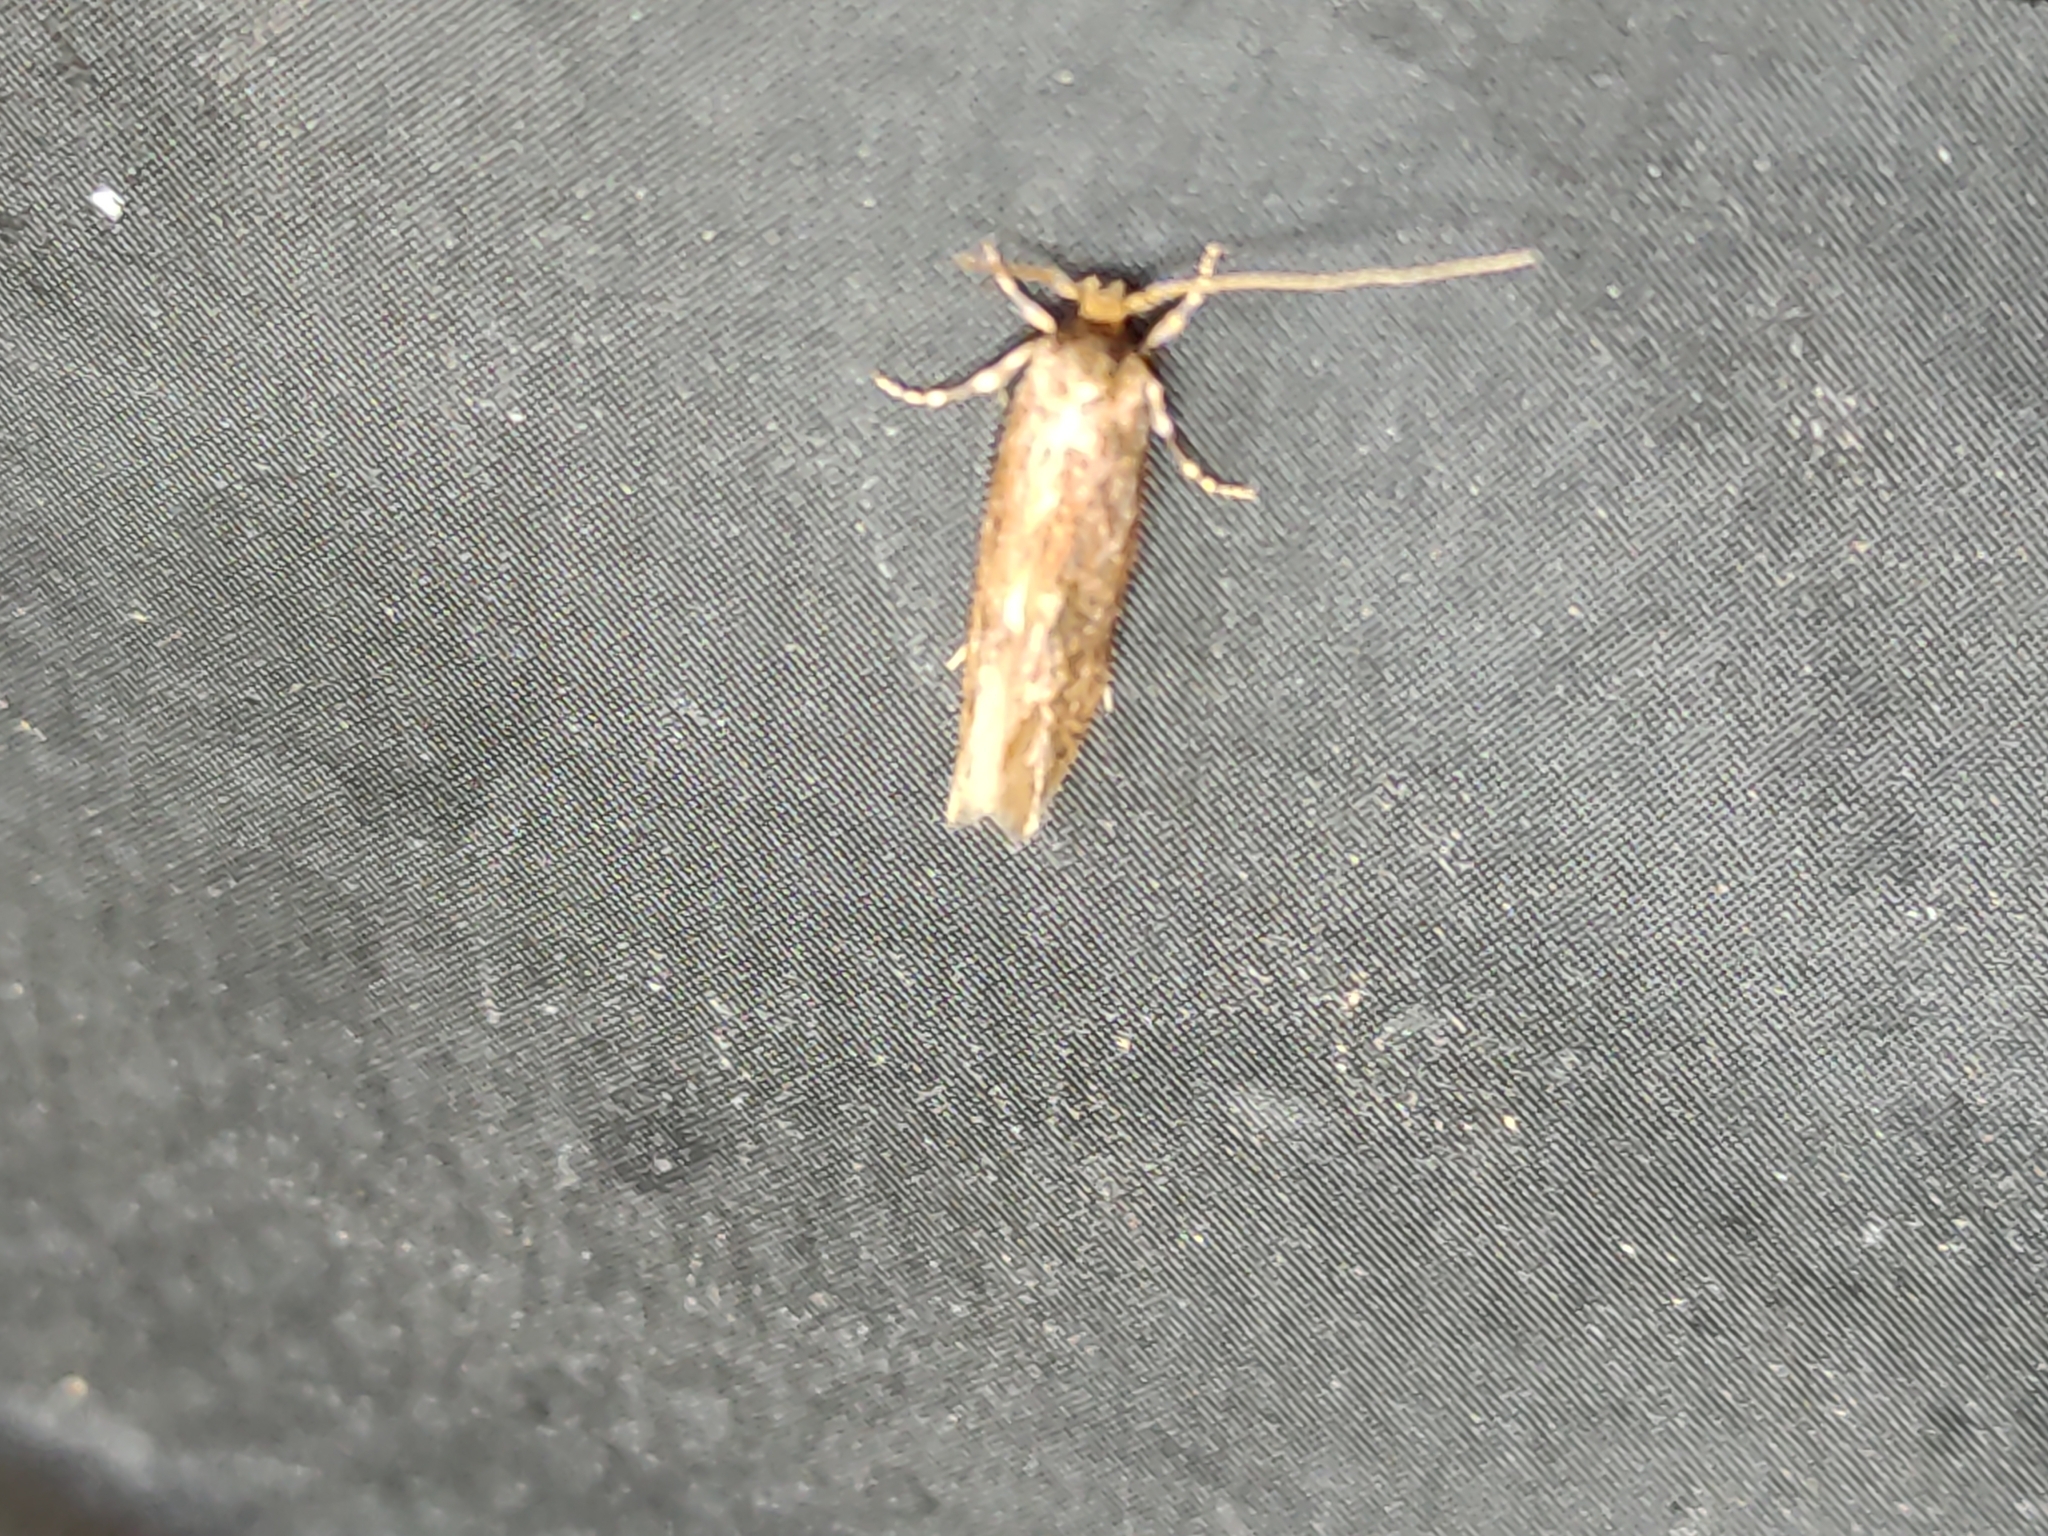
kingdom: Animalia
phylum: Arthropoda
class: Insecta
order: Lepidoptera
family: Tineidae
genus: Opogona
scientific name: Opogona omoscopa
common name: Moth
